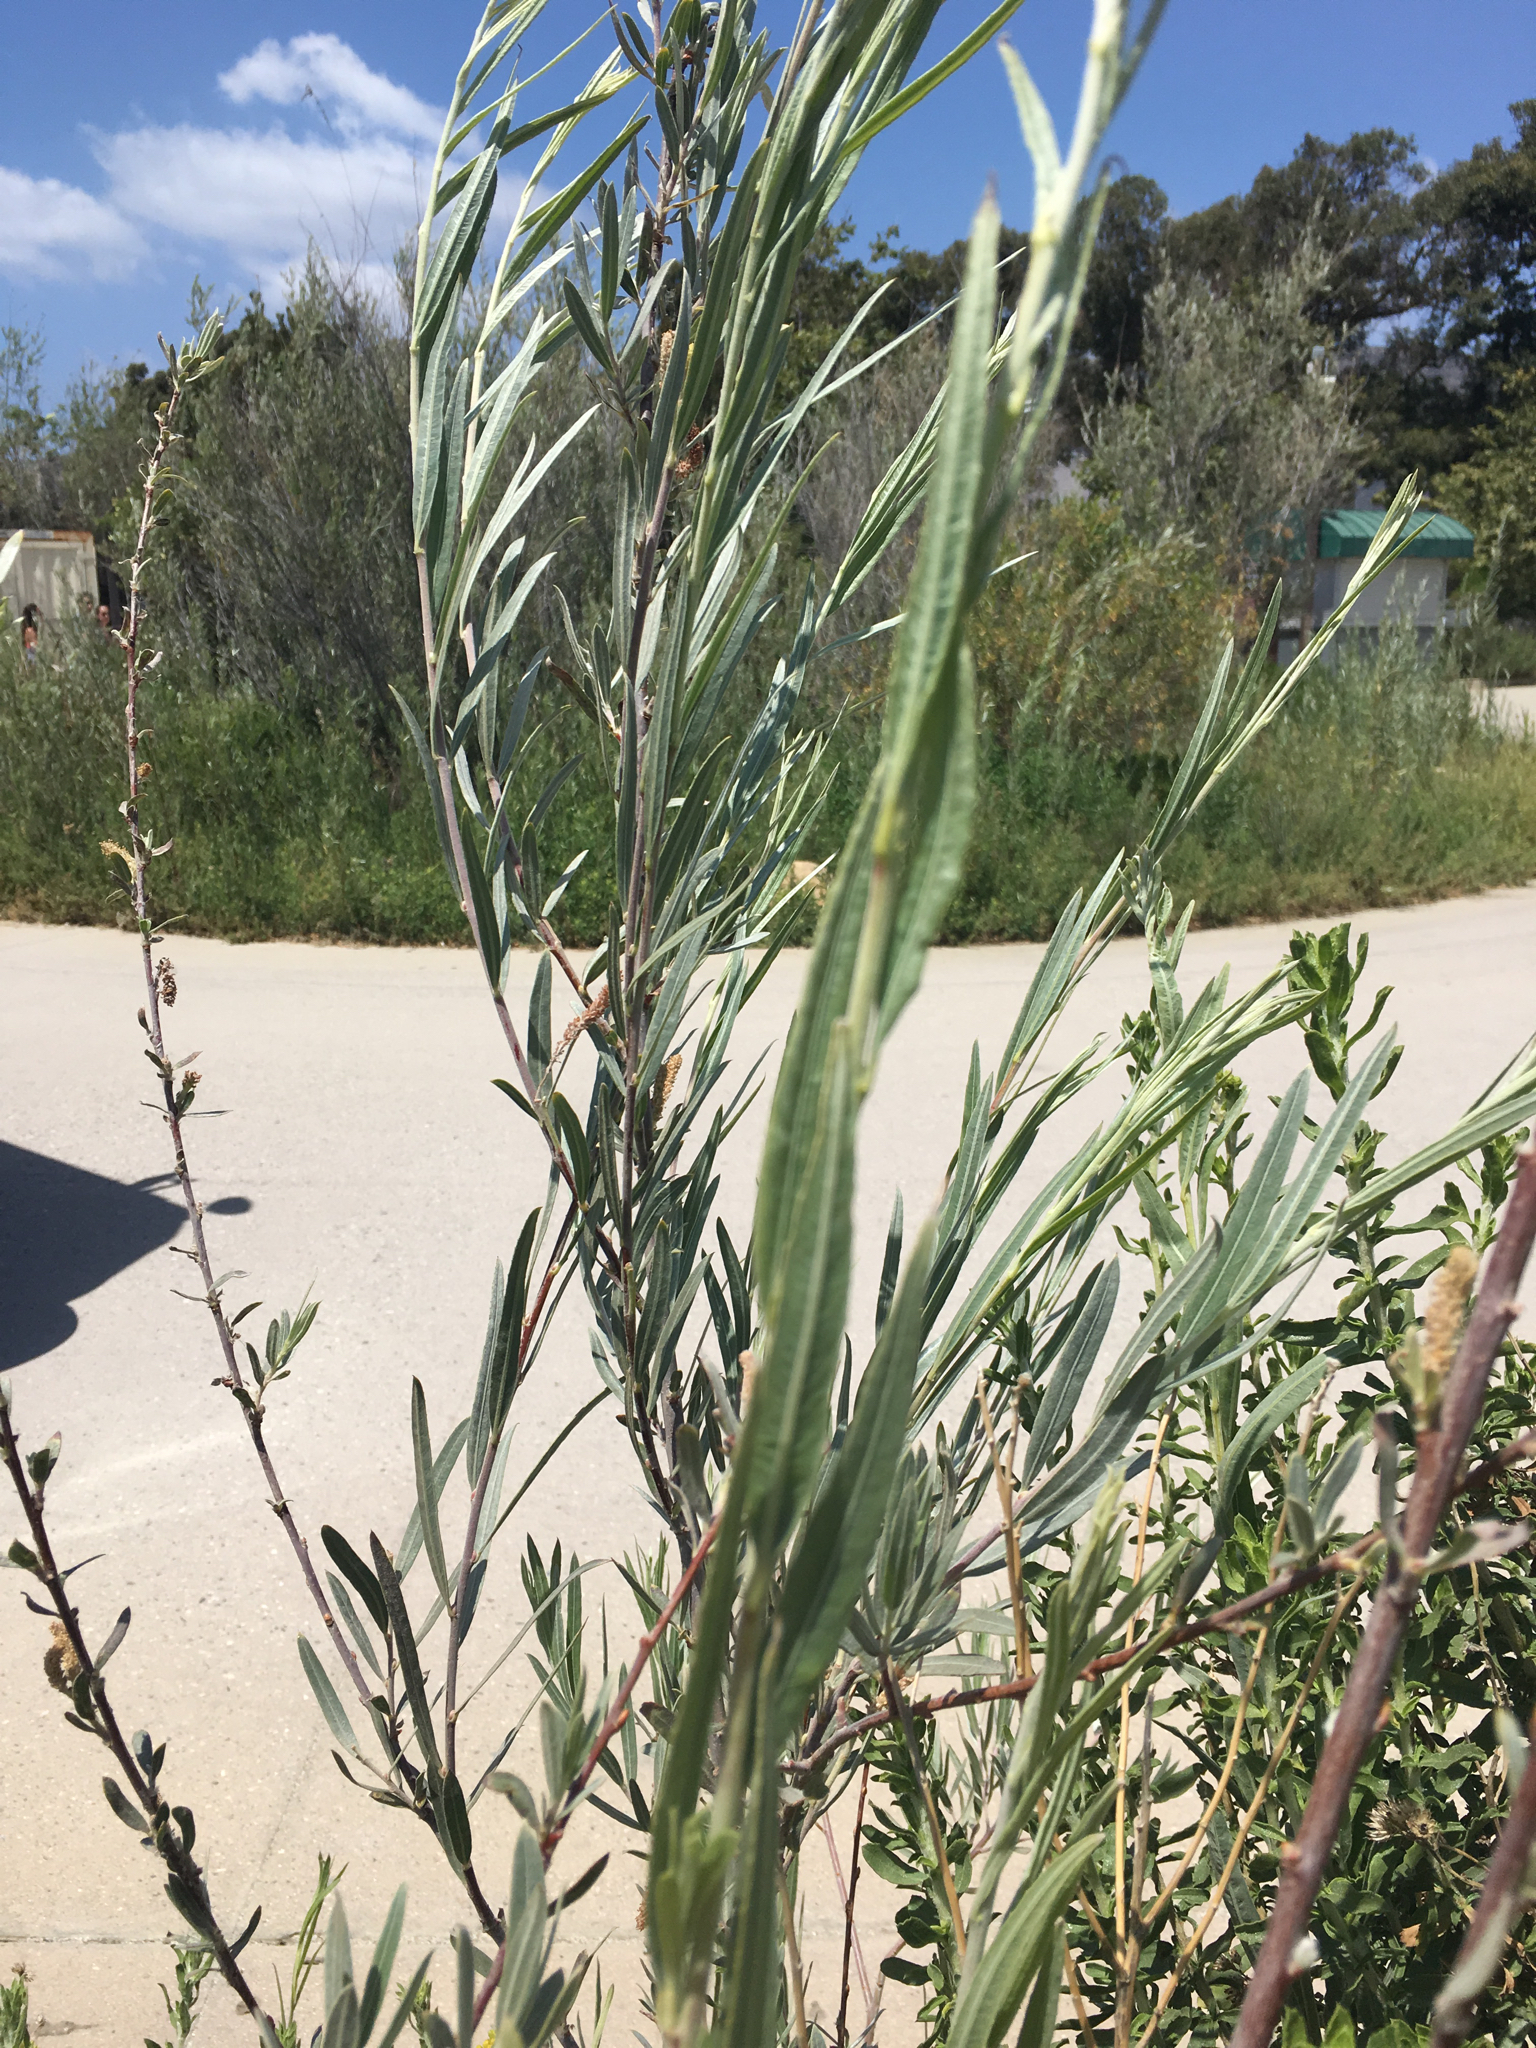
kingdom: Plantae
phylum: Tracheophyta
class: Magnoliopsida
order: Malpighiales
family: Salicaceae
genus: Salix
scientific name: Salix exigua
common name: Coyote willow
